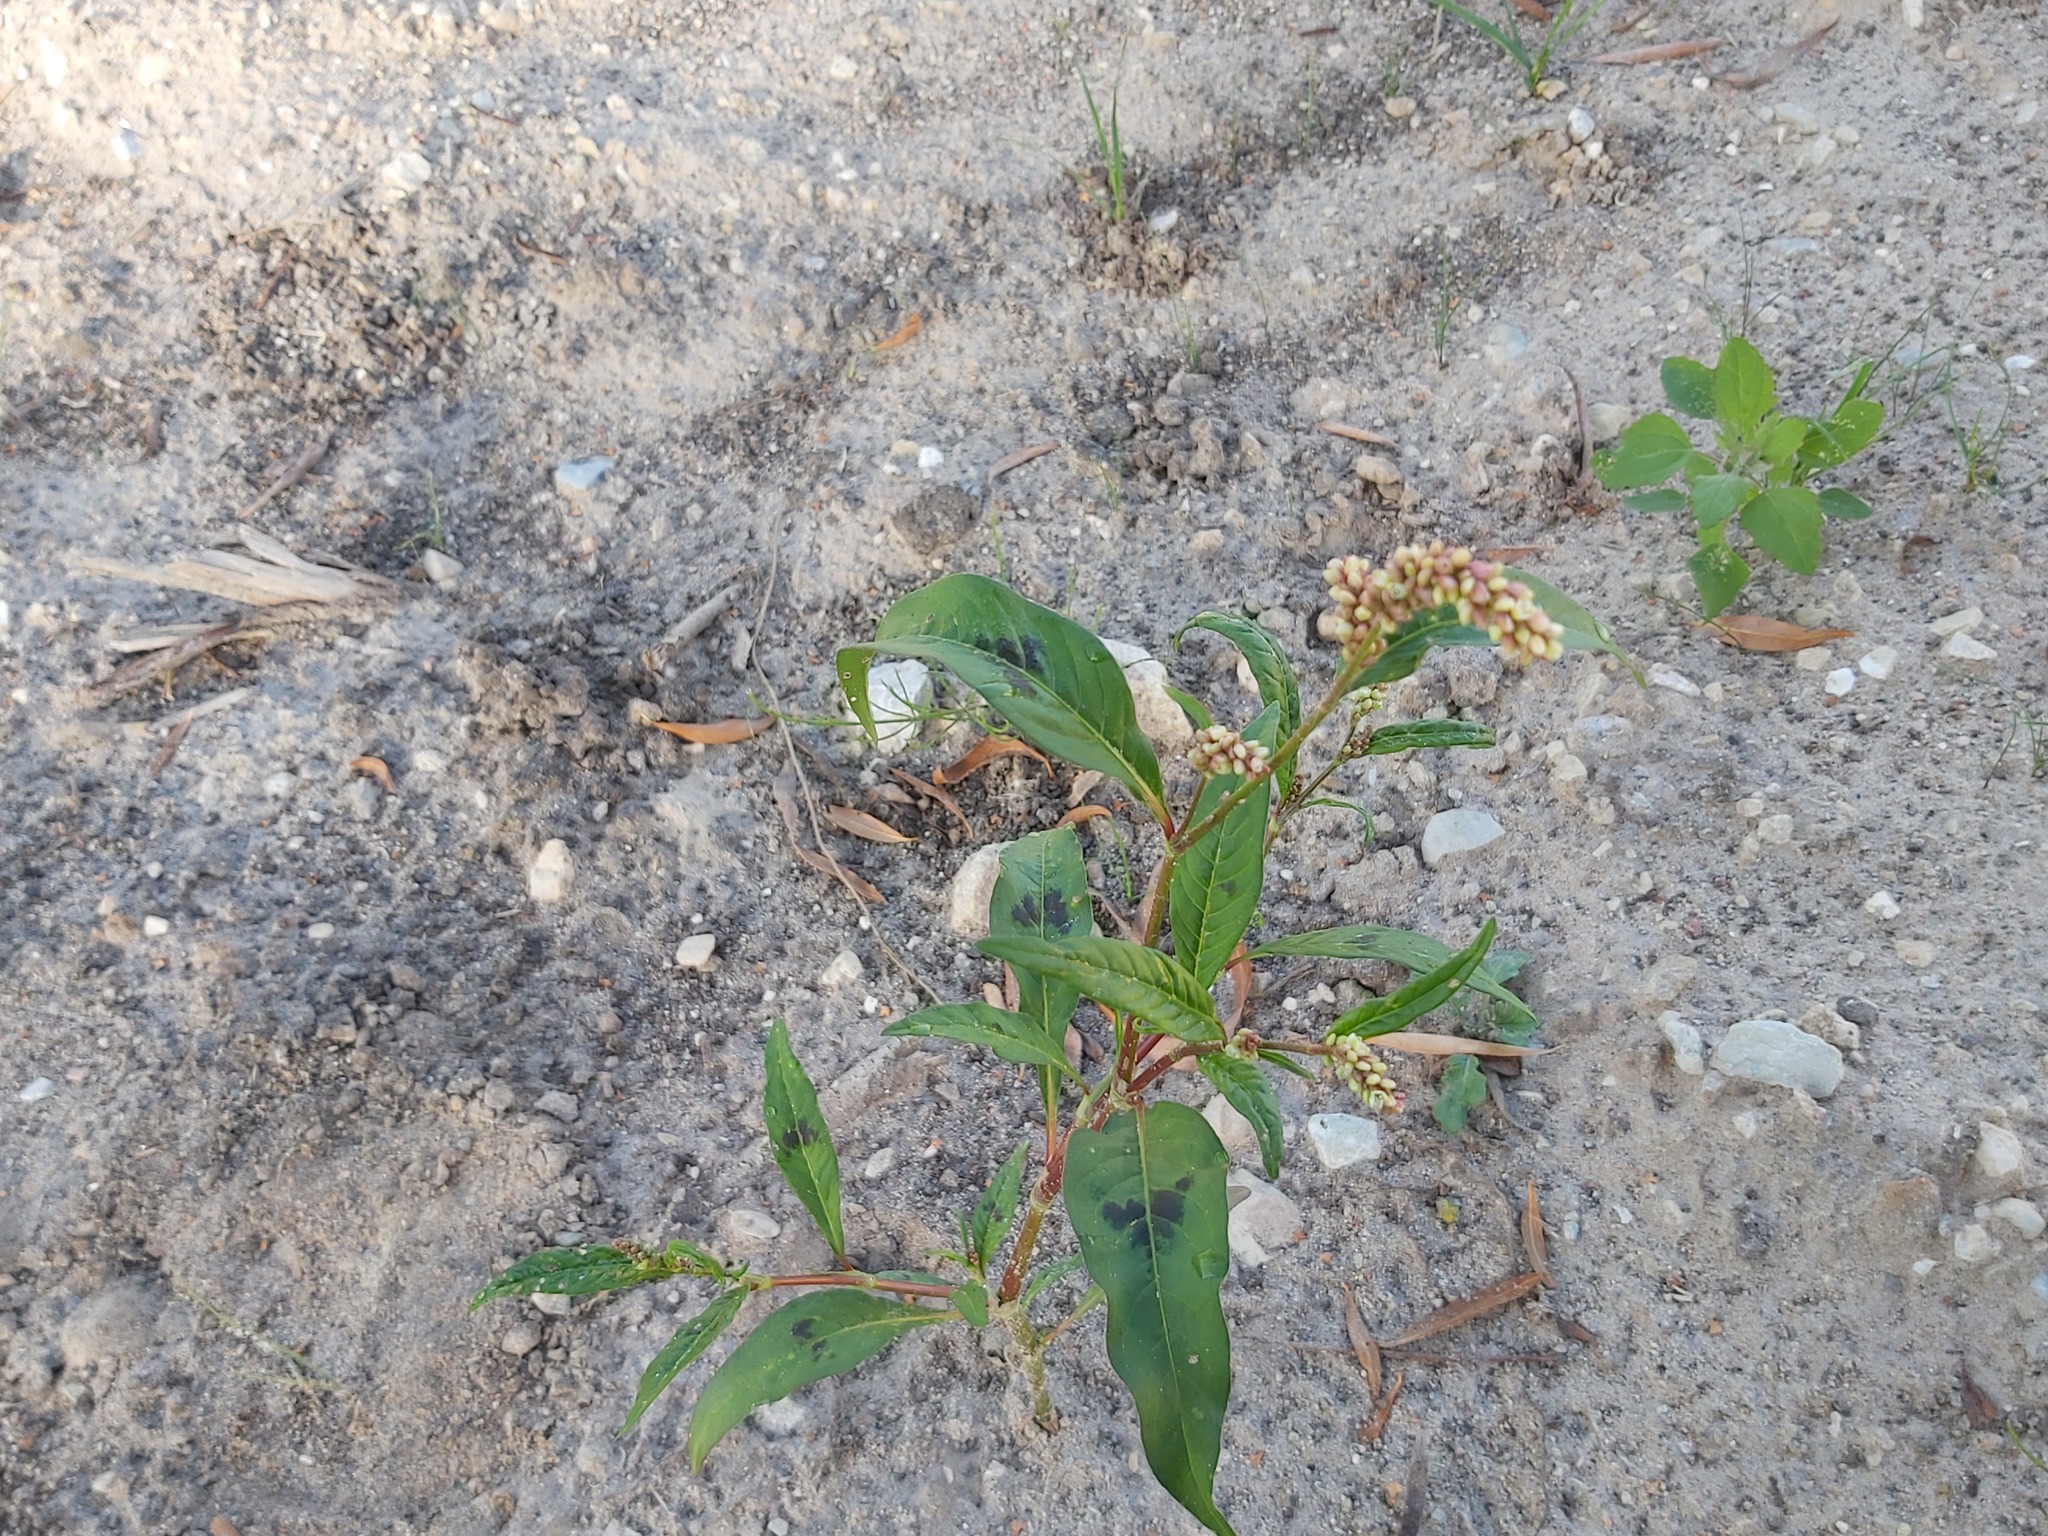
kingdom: Plantae
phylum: Tracheophyta
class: Magnoliopsida
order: Caryophyllales
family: Polygonaceae
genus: Persicaria
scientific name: Persicaria maculosa
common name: Redshank
